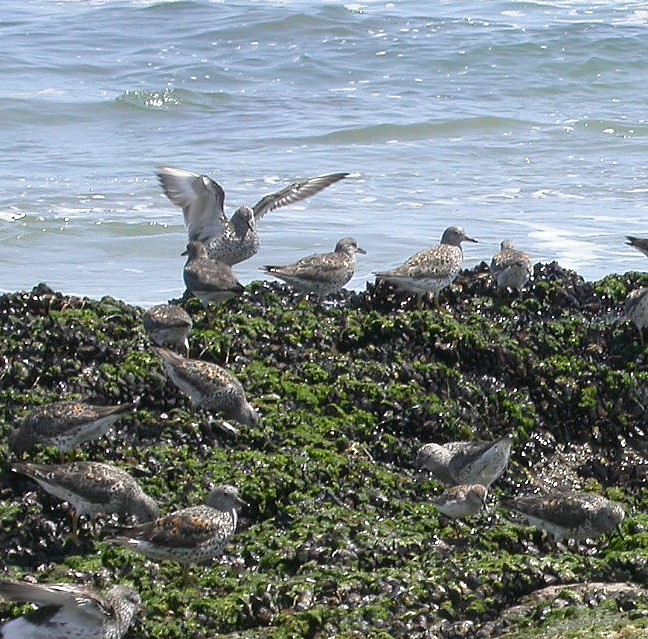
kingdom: Animalia
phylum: Chordata
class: Aves
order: Charadriiformes
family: Scolopacidae
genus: Calidris
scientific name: Calidris virgata
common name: Surfbird
